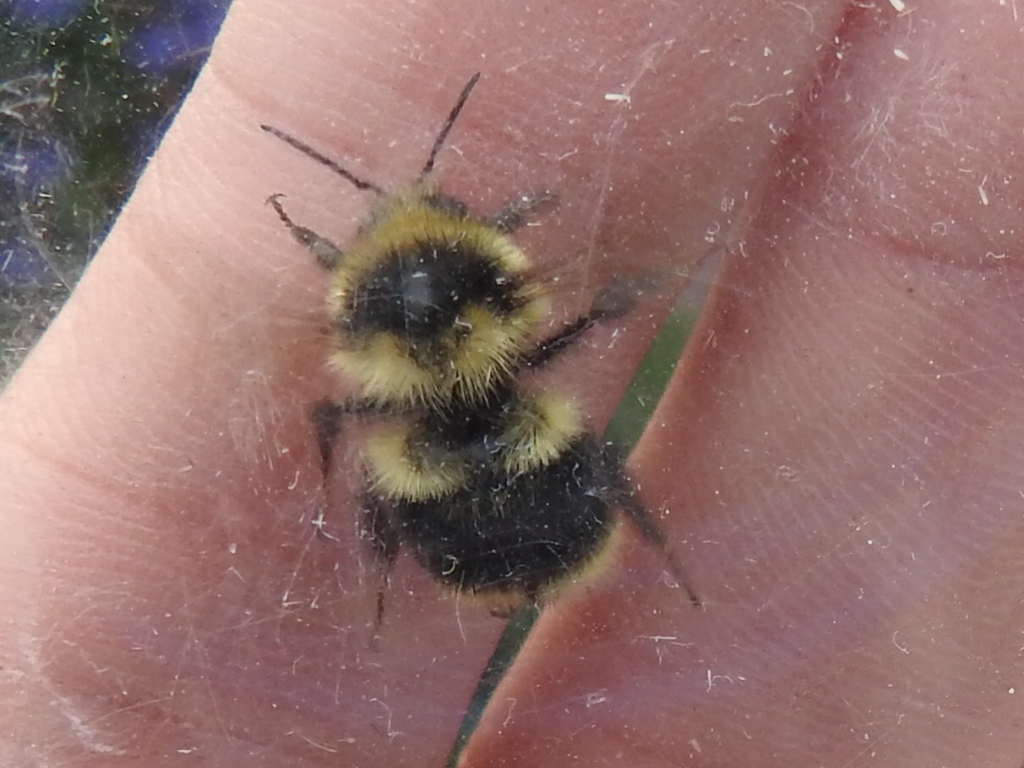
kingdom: Animalia
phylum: Arthropoda
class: Insecta
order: Hymenoptera
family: Apidae
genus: Bombus
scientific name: Bombus melanopygus
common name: Black tail bumble bee
